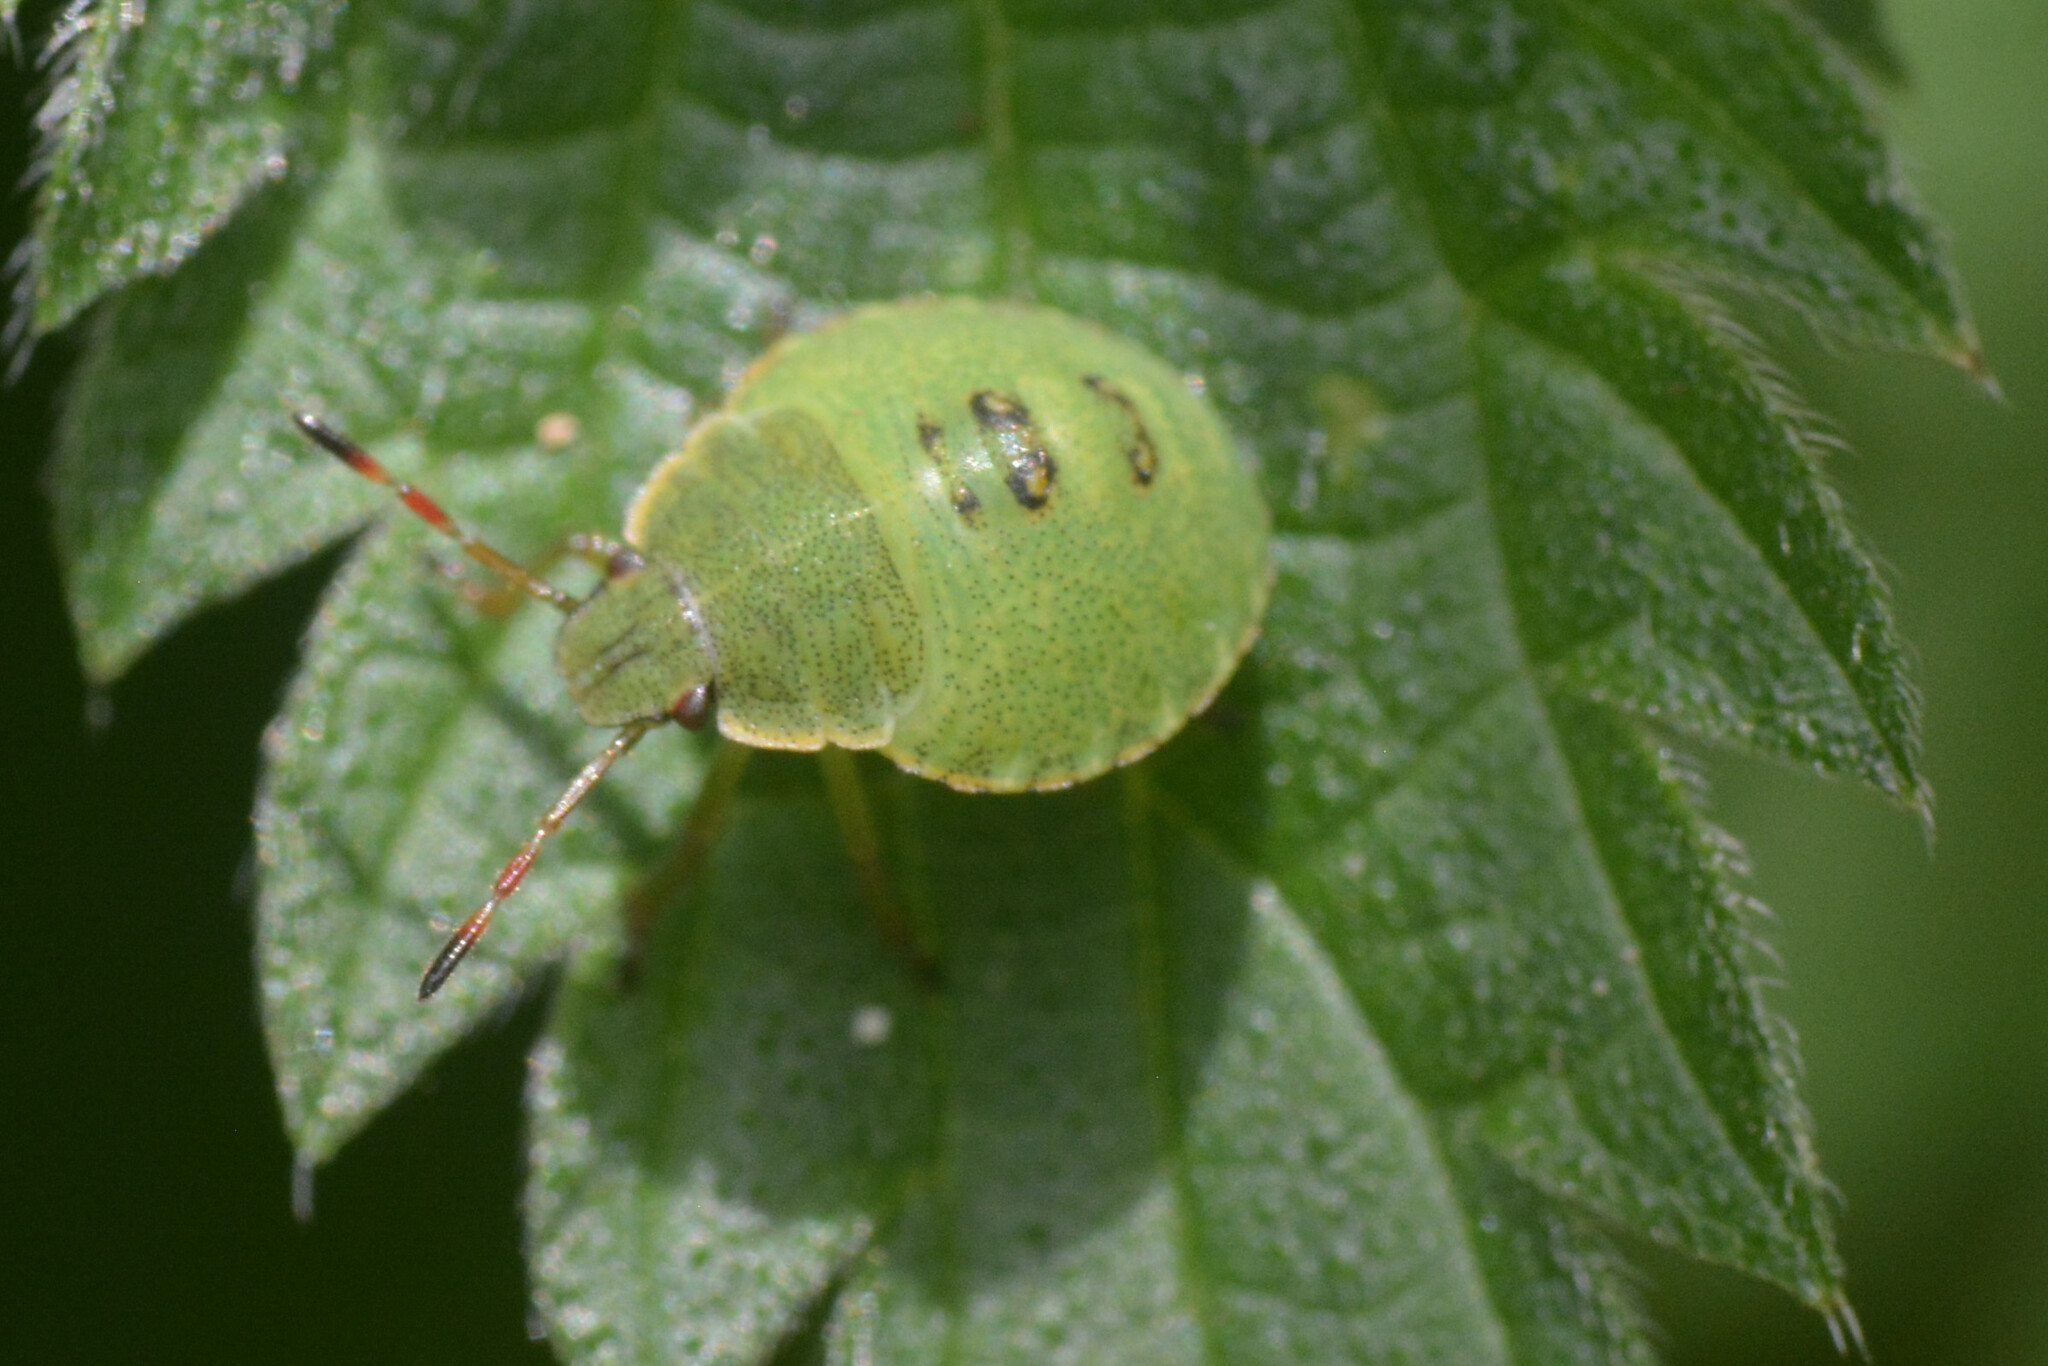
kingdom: Animalia
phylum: Arthropoda
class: Insecta
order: Hemiptera
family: Pentatomidae
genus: Palomena
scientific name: Palomena prasina
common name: Green shieldbug
